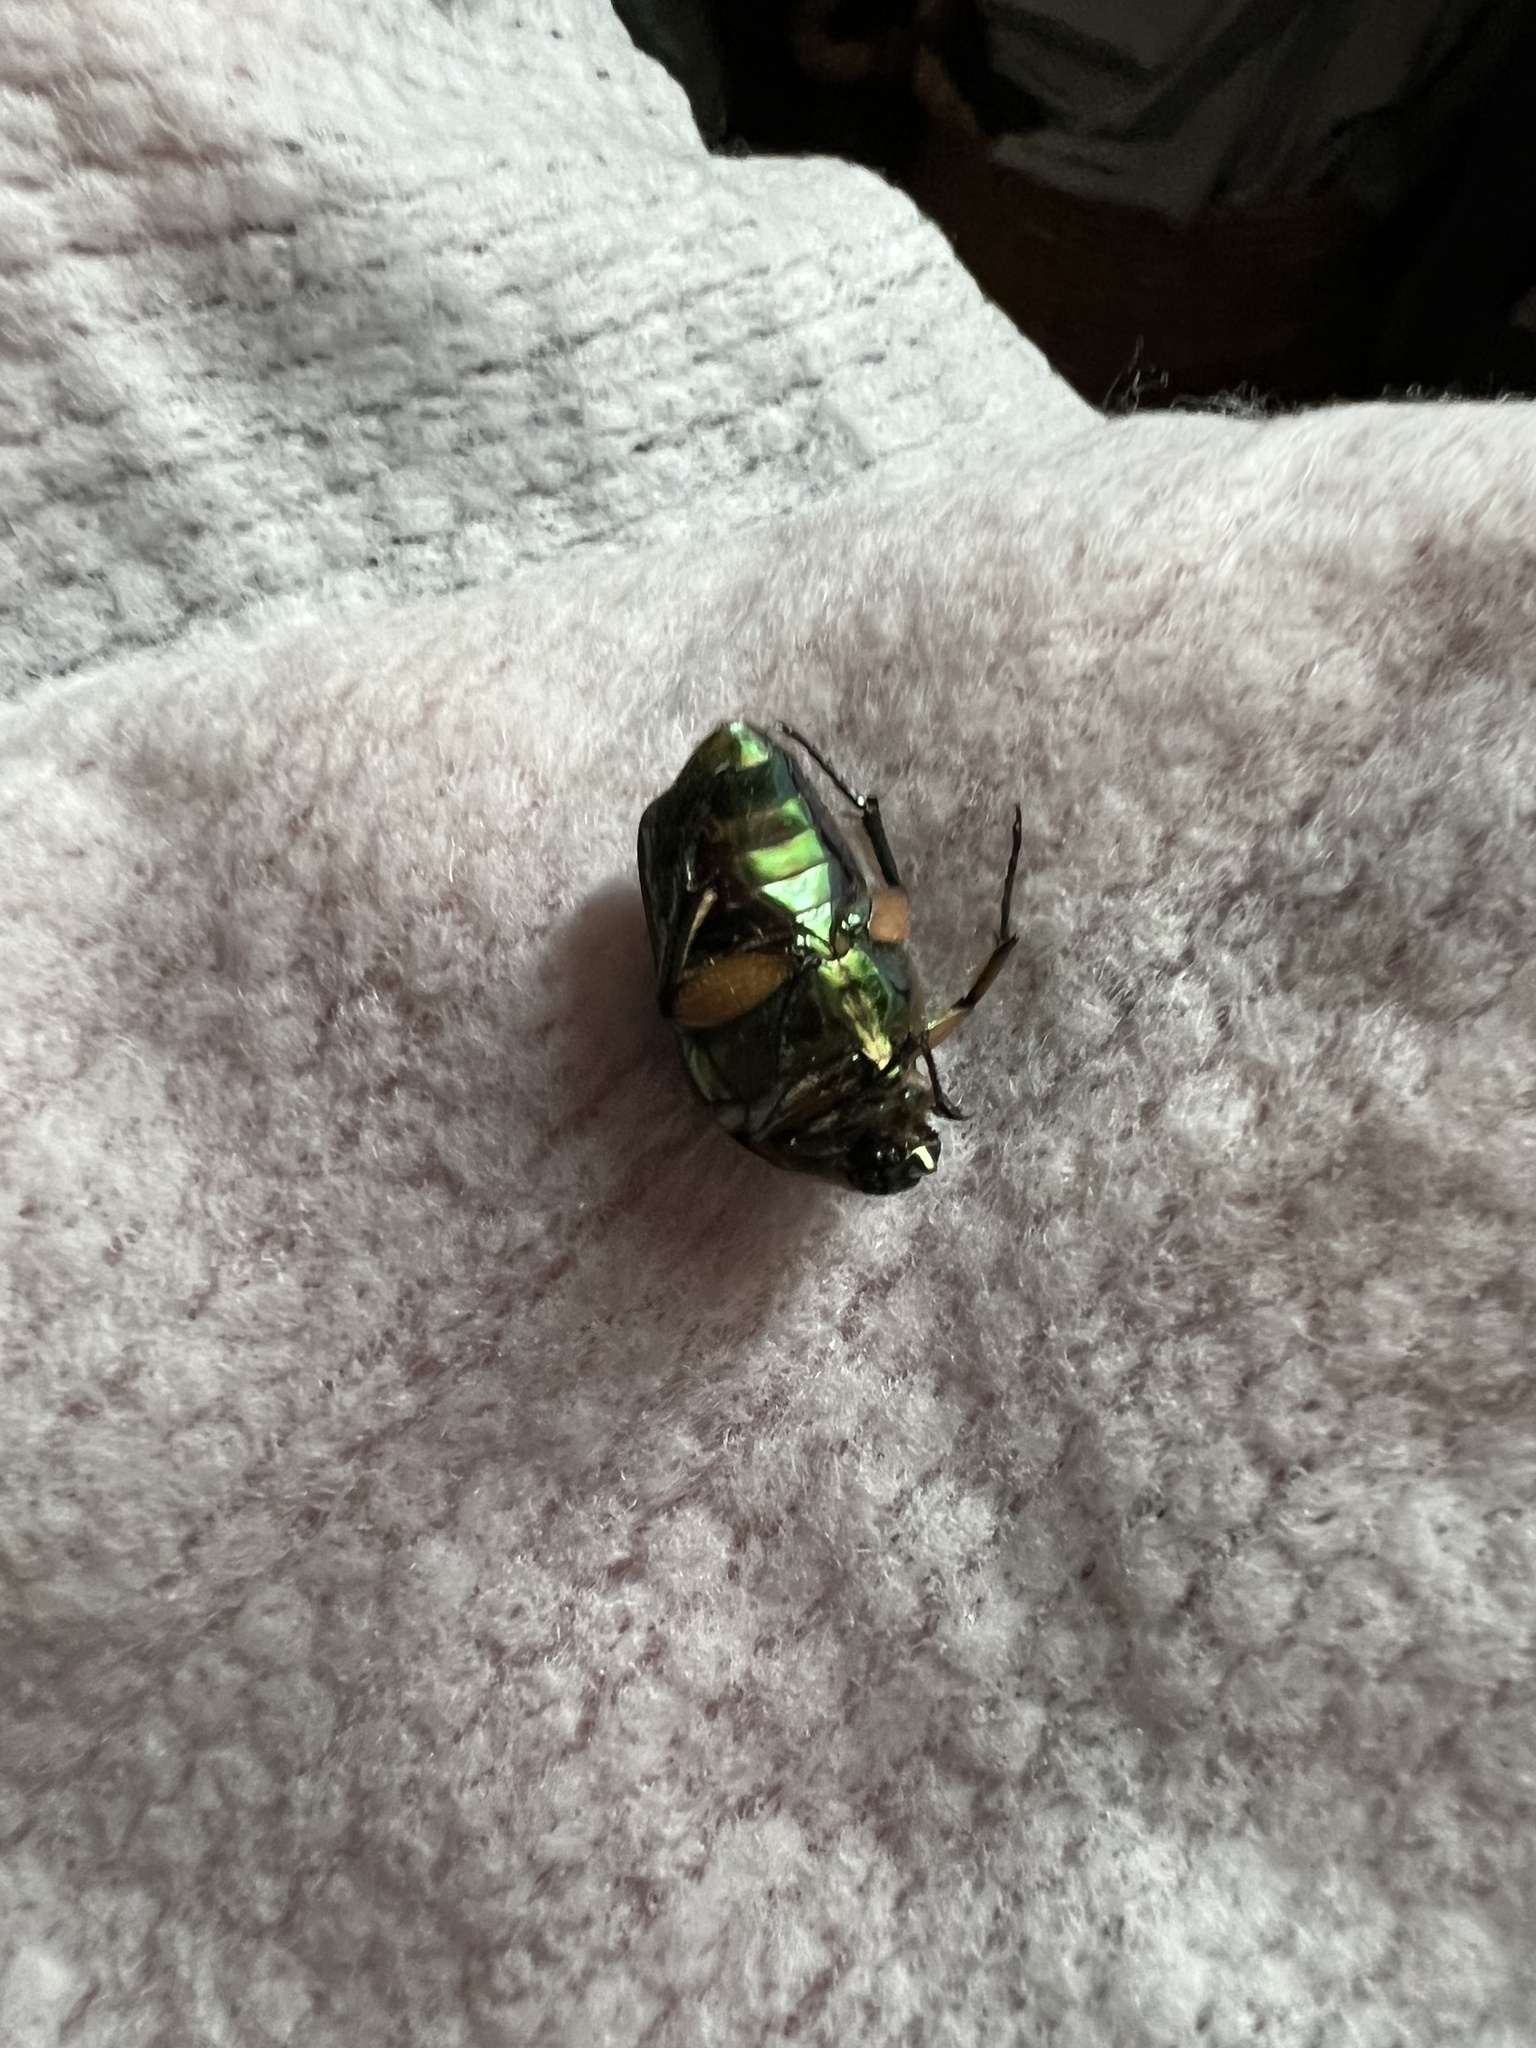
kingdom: Animalia
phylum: Arthropoda
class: Insecta
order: Coleoptera
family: Scarabaeidae
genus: Cotinis
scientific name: Cotinis nitida
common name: Common green june beetle
